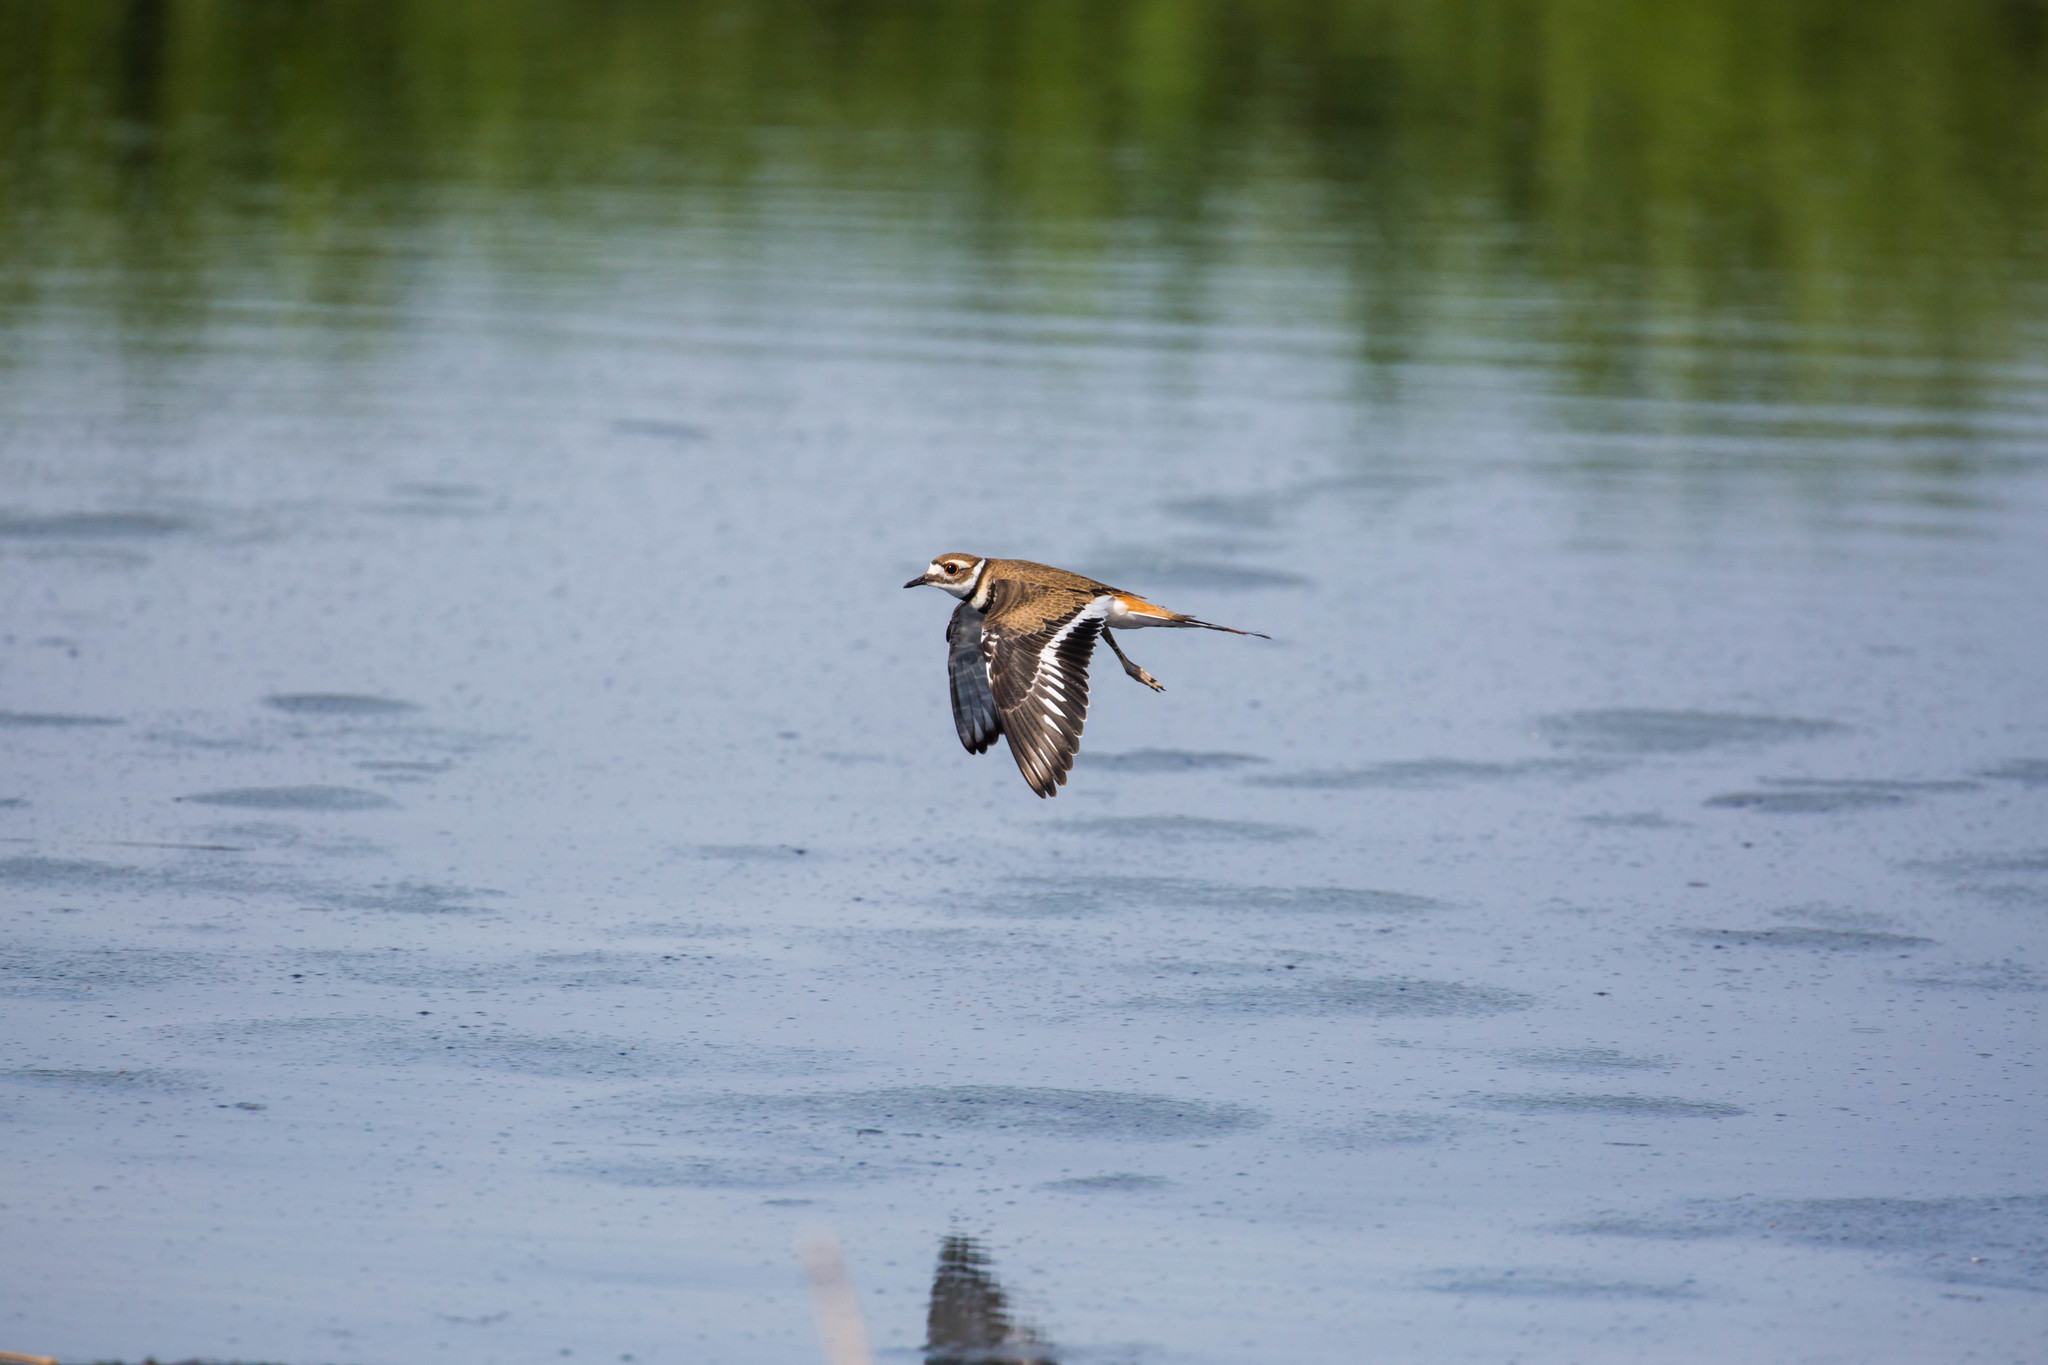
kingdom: Animalia
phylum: Chordata
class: Aves
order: Charadriiformes
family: Charadriidae
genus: Charadrius
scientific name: Charadrius vociferus
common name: Killdeer
